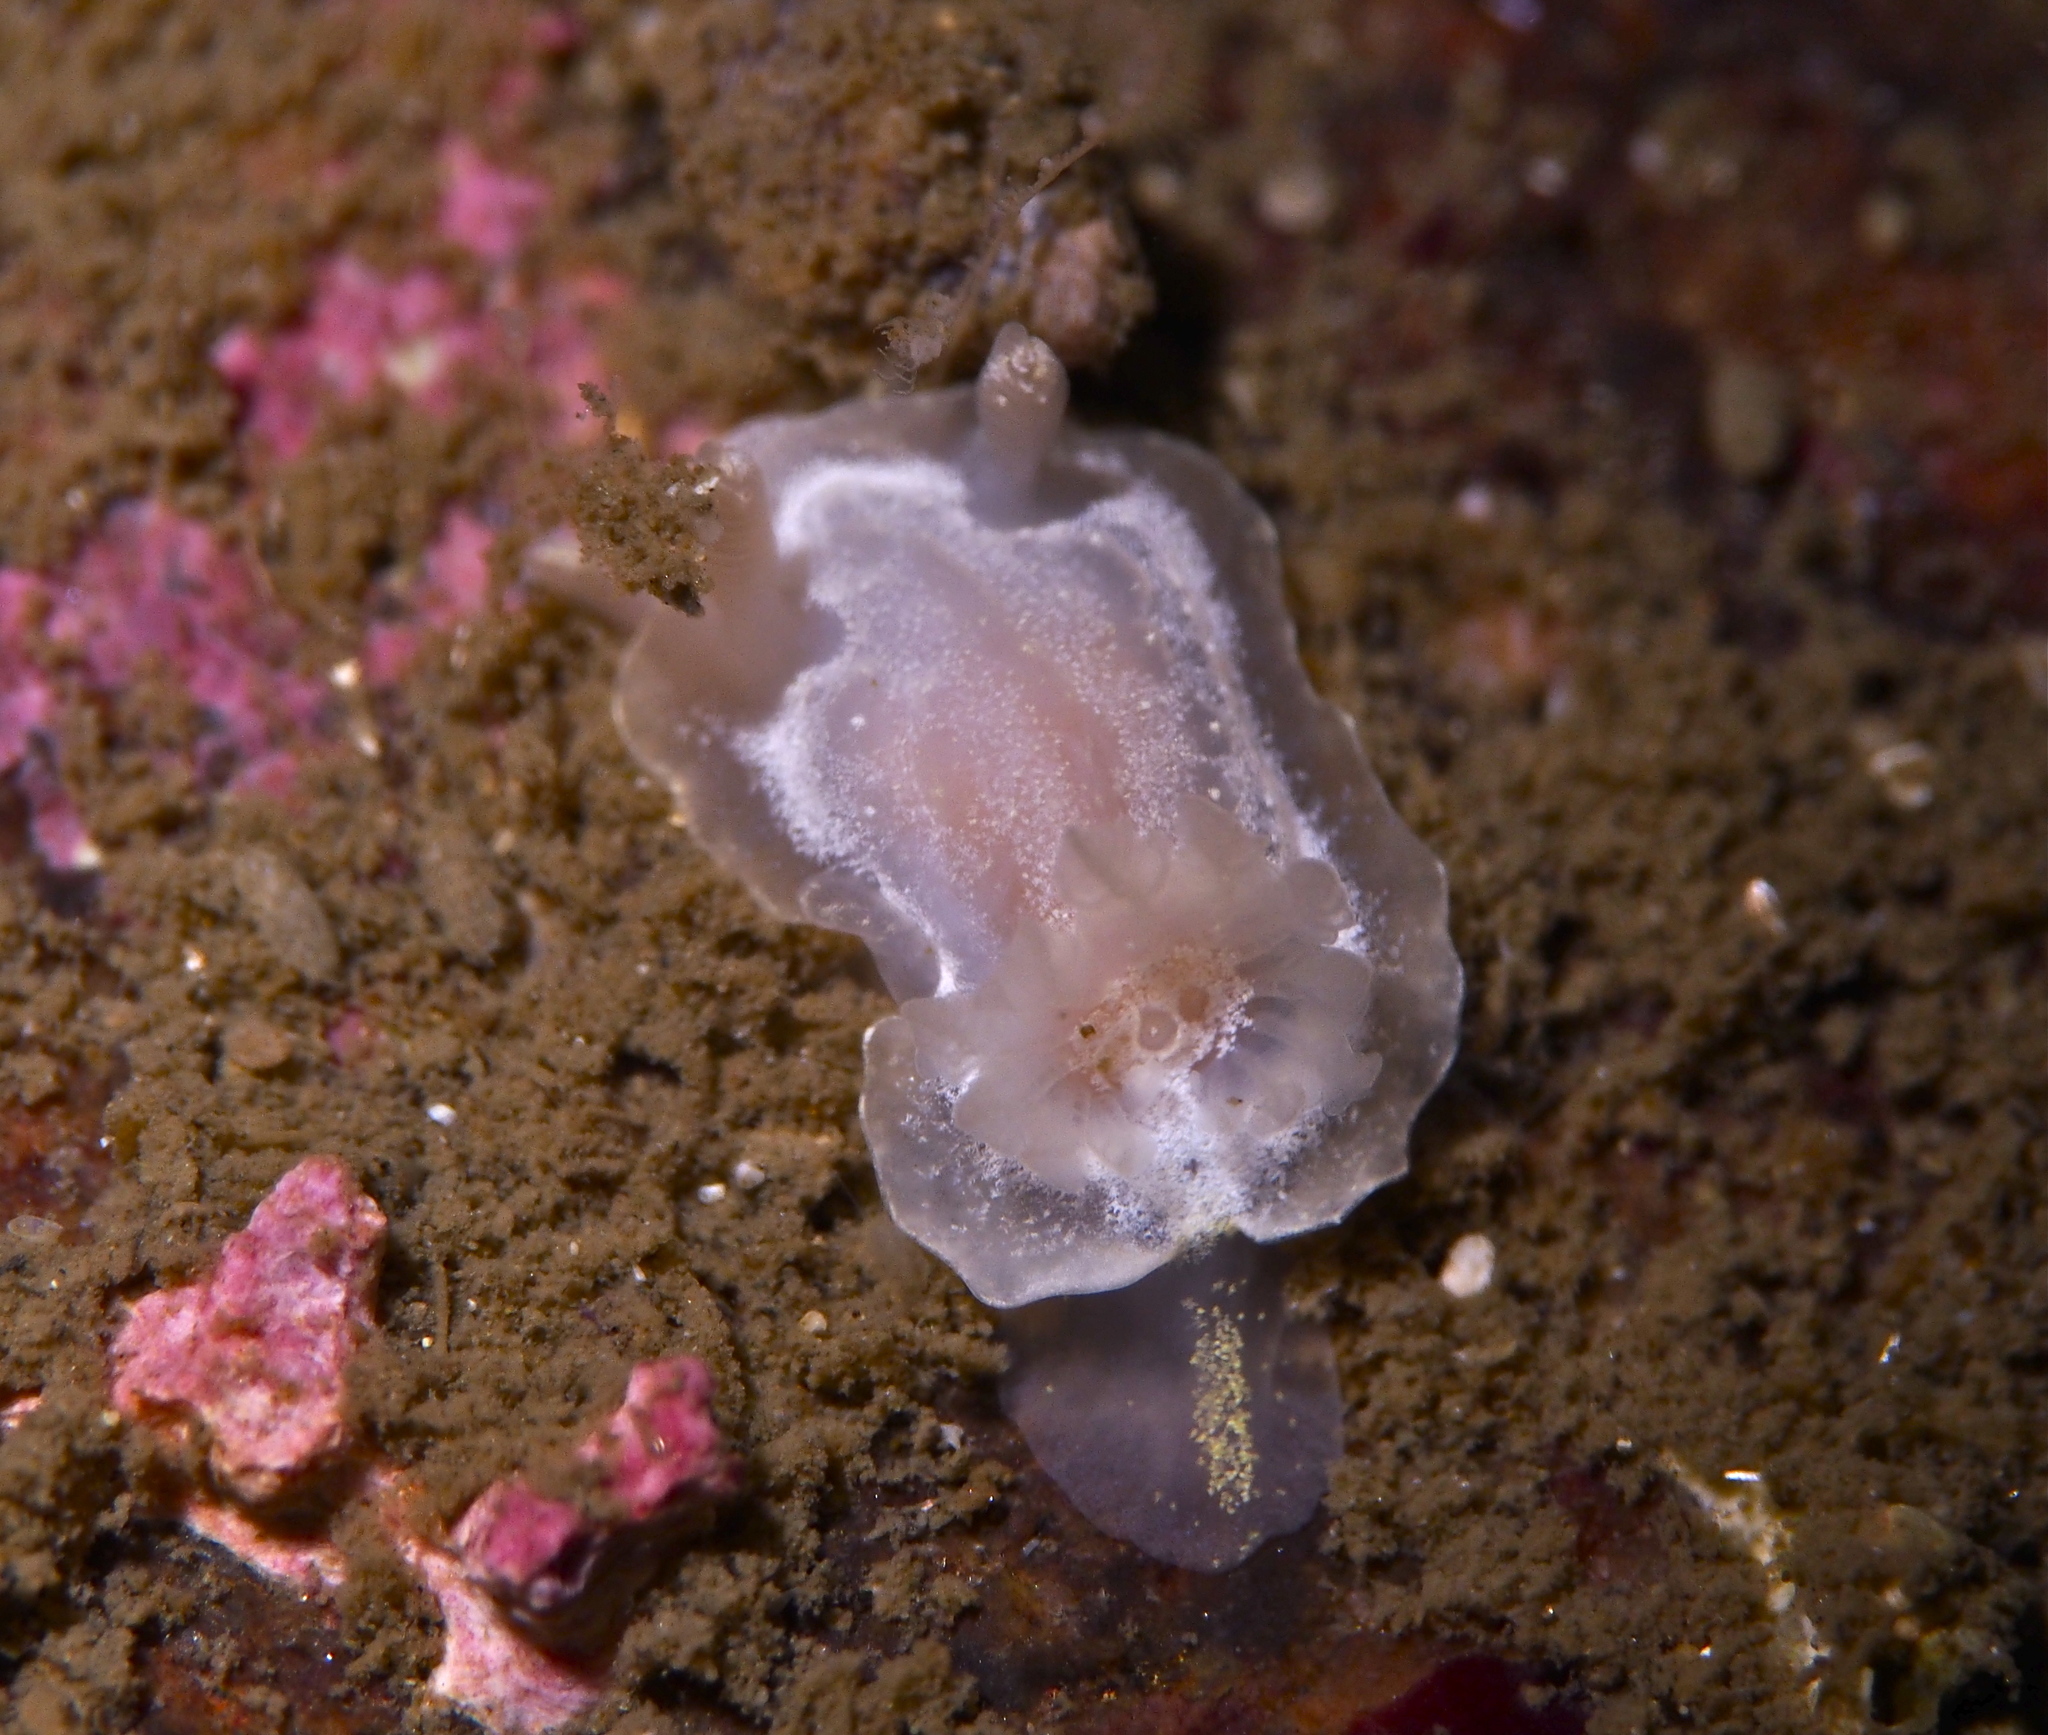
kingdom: Animalia
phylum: Mollusca
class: Gastropoda
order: Nudibranchia
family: Goniodorididae
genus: Okenia
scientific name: Okenia
